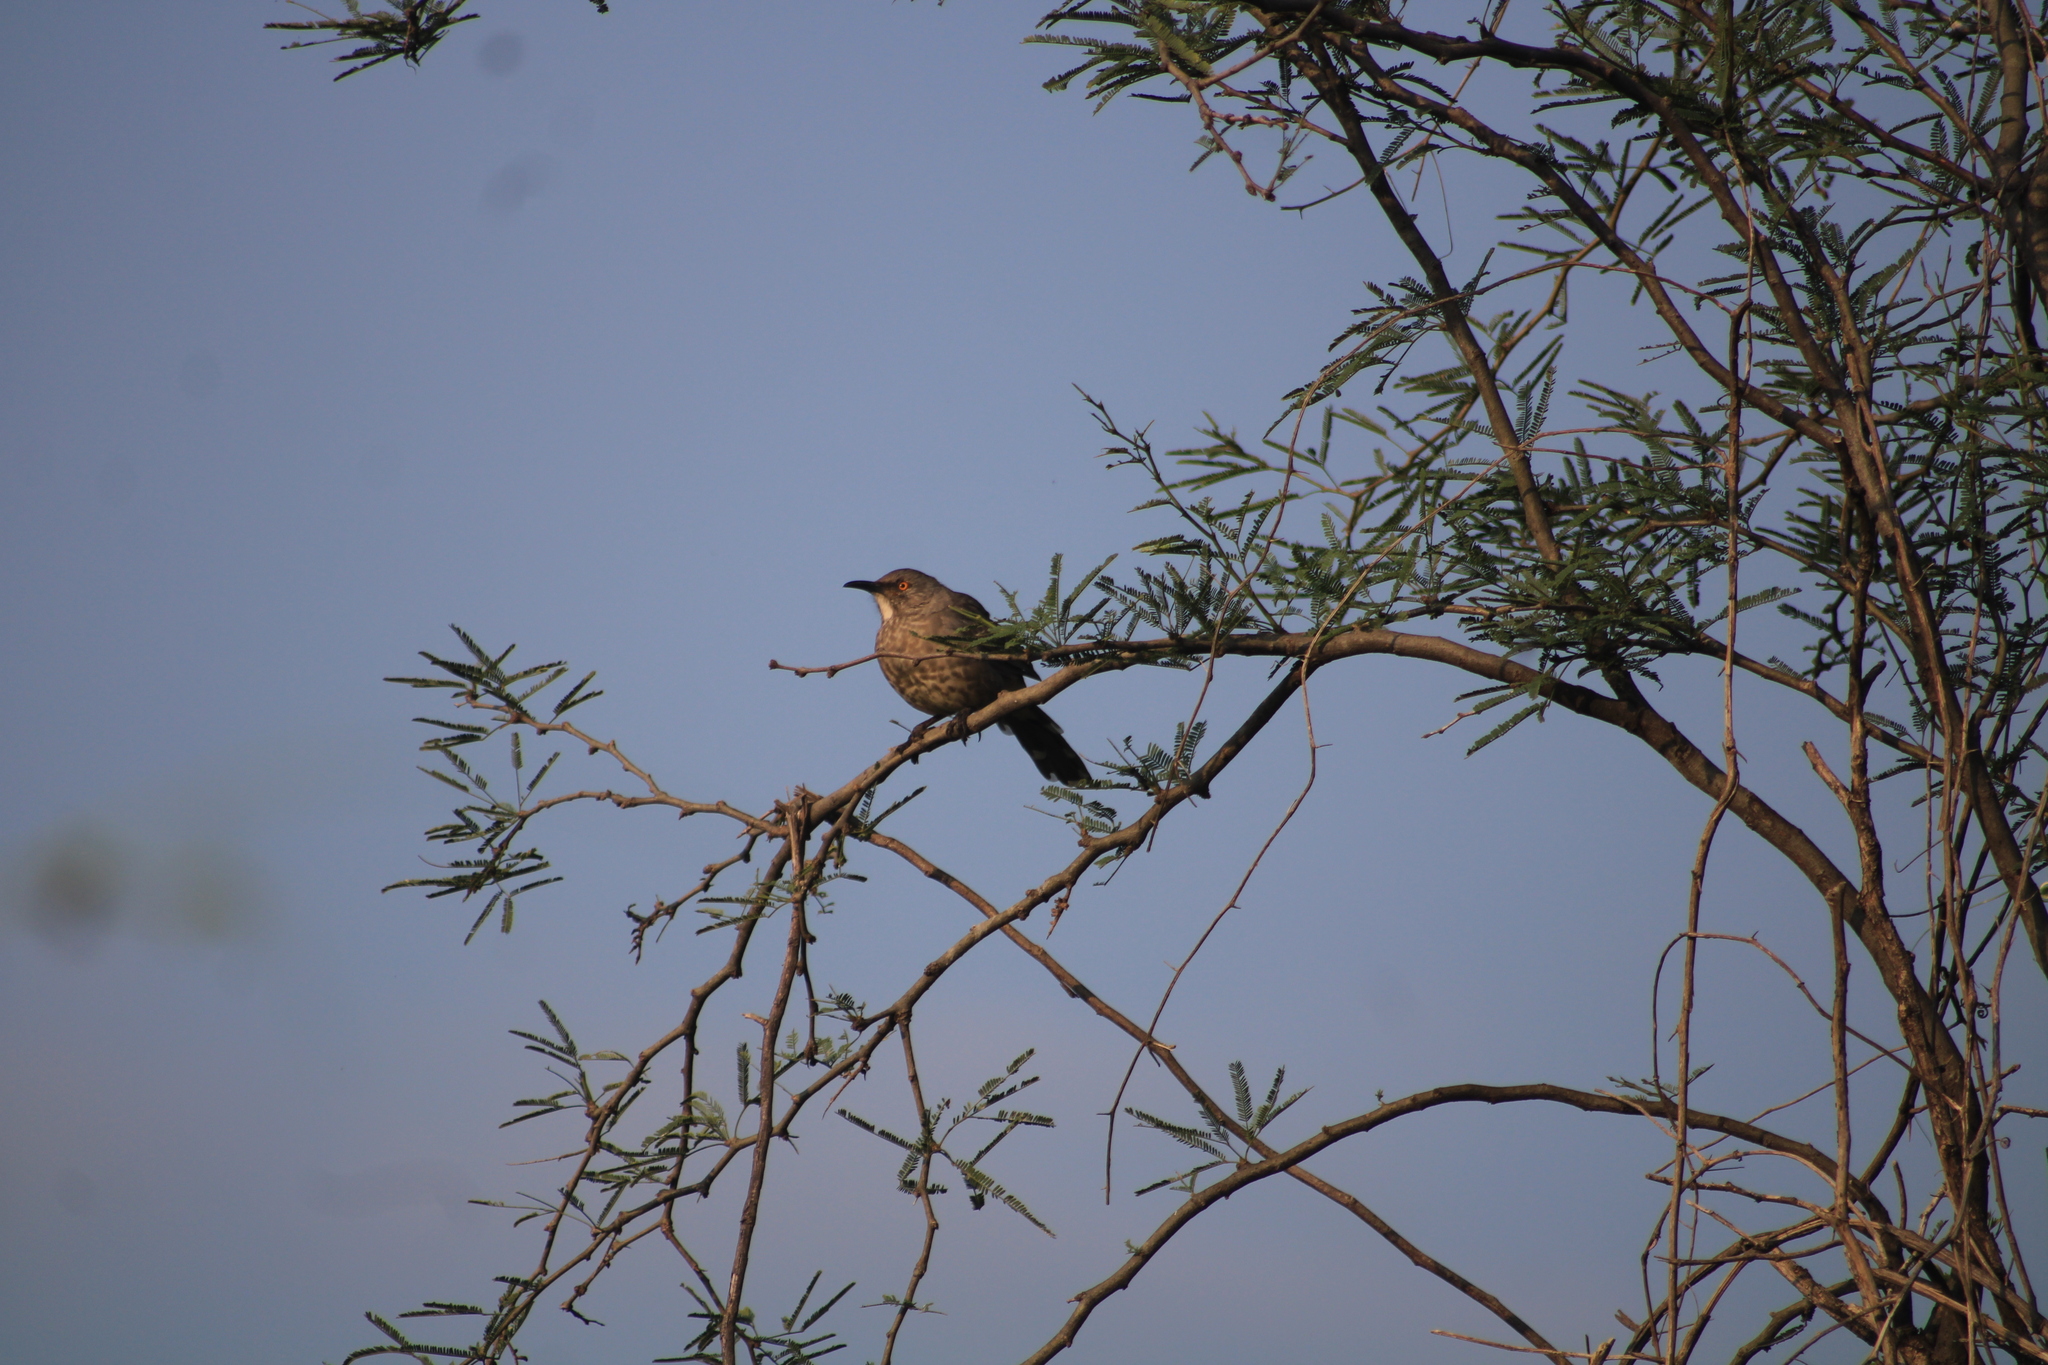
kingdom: Animalia
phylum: Chordata
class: Aves
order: Passeriformes
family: Mimidae
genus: Toxostoma
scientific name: Toxostoma curvirostre
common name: Curve-billed thrasher
